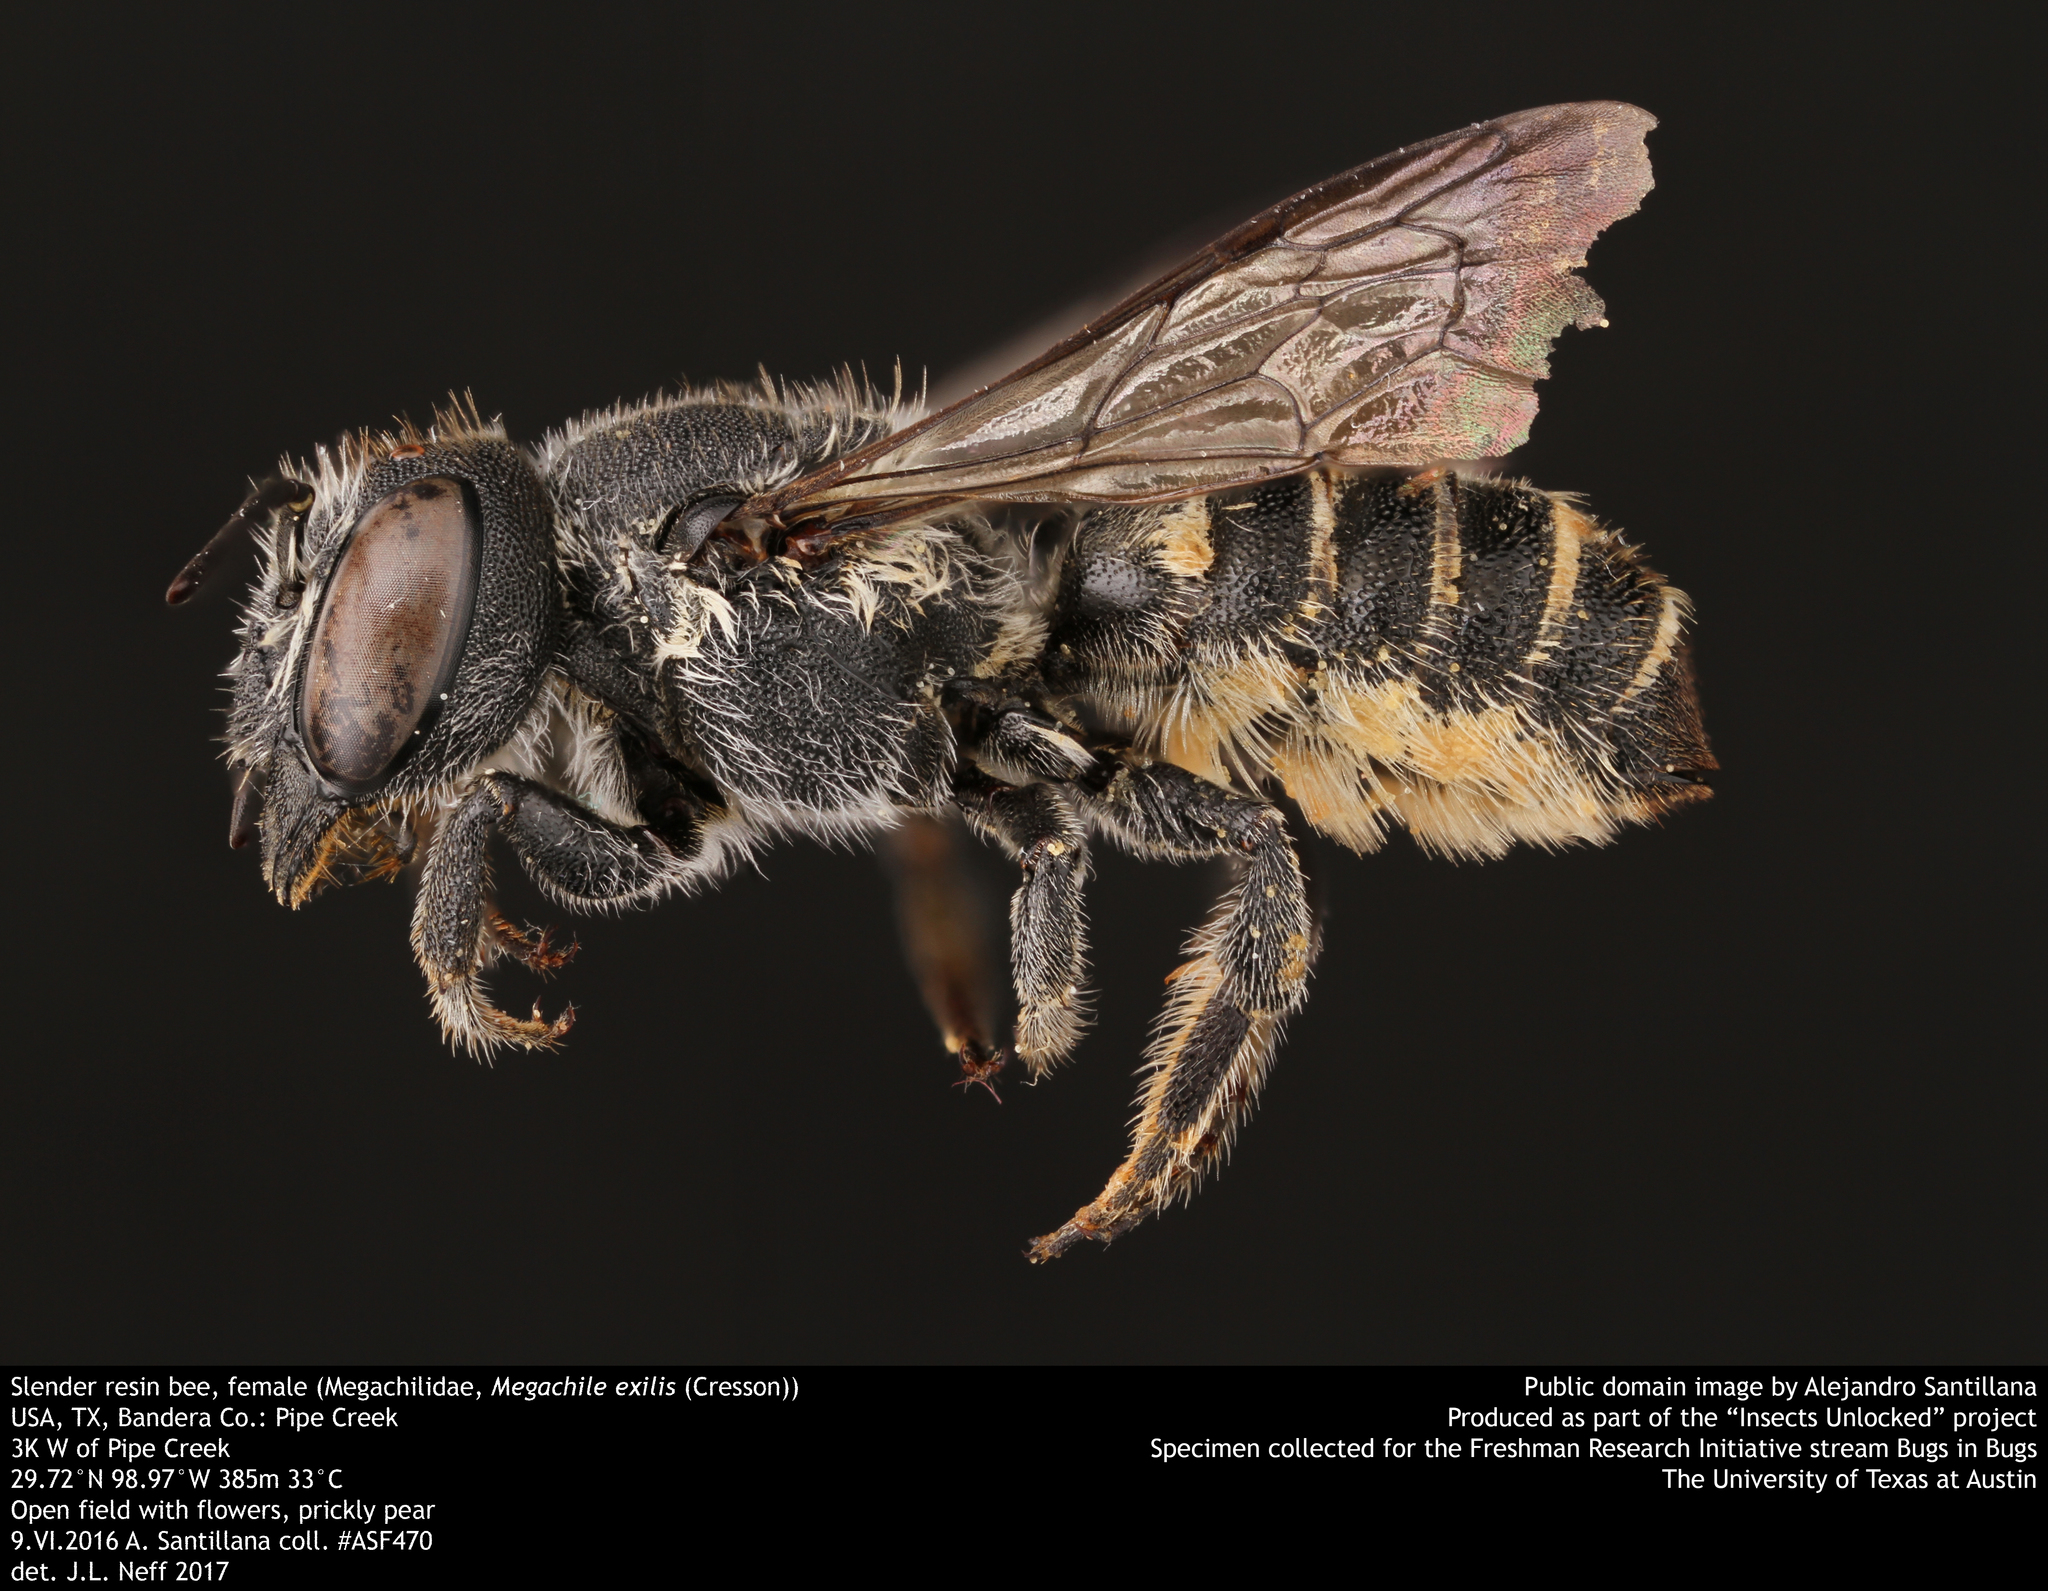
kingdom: Animalia
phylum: Arthropoda
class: Insecta
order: Hymenoptera
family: Megachilidae
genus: Megachile
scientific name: Megachile exilis
